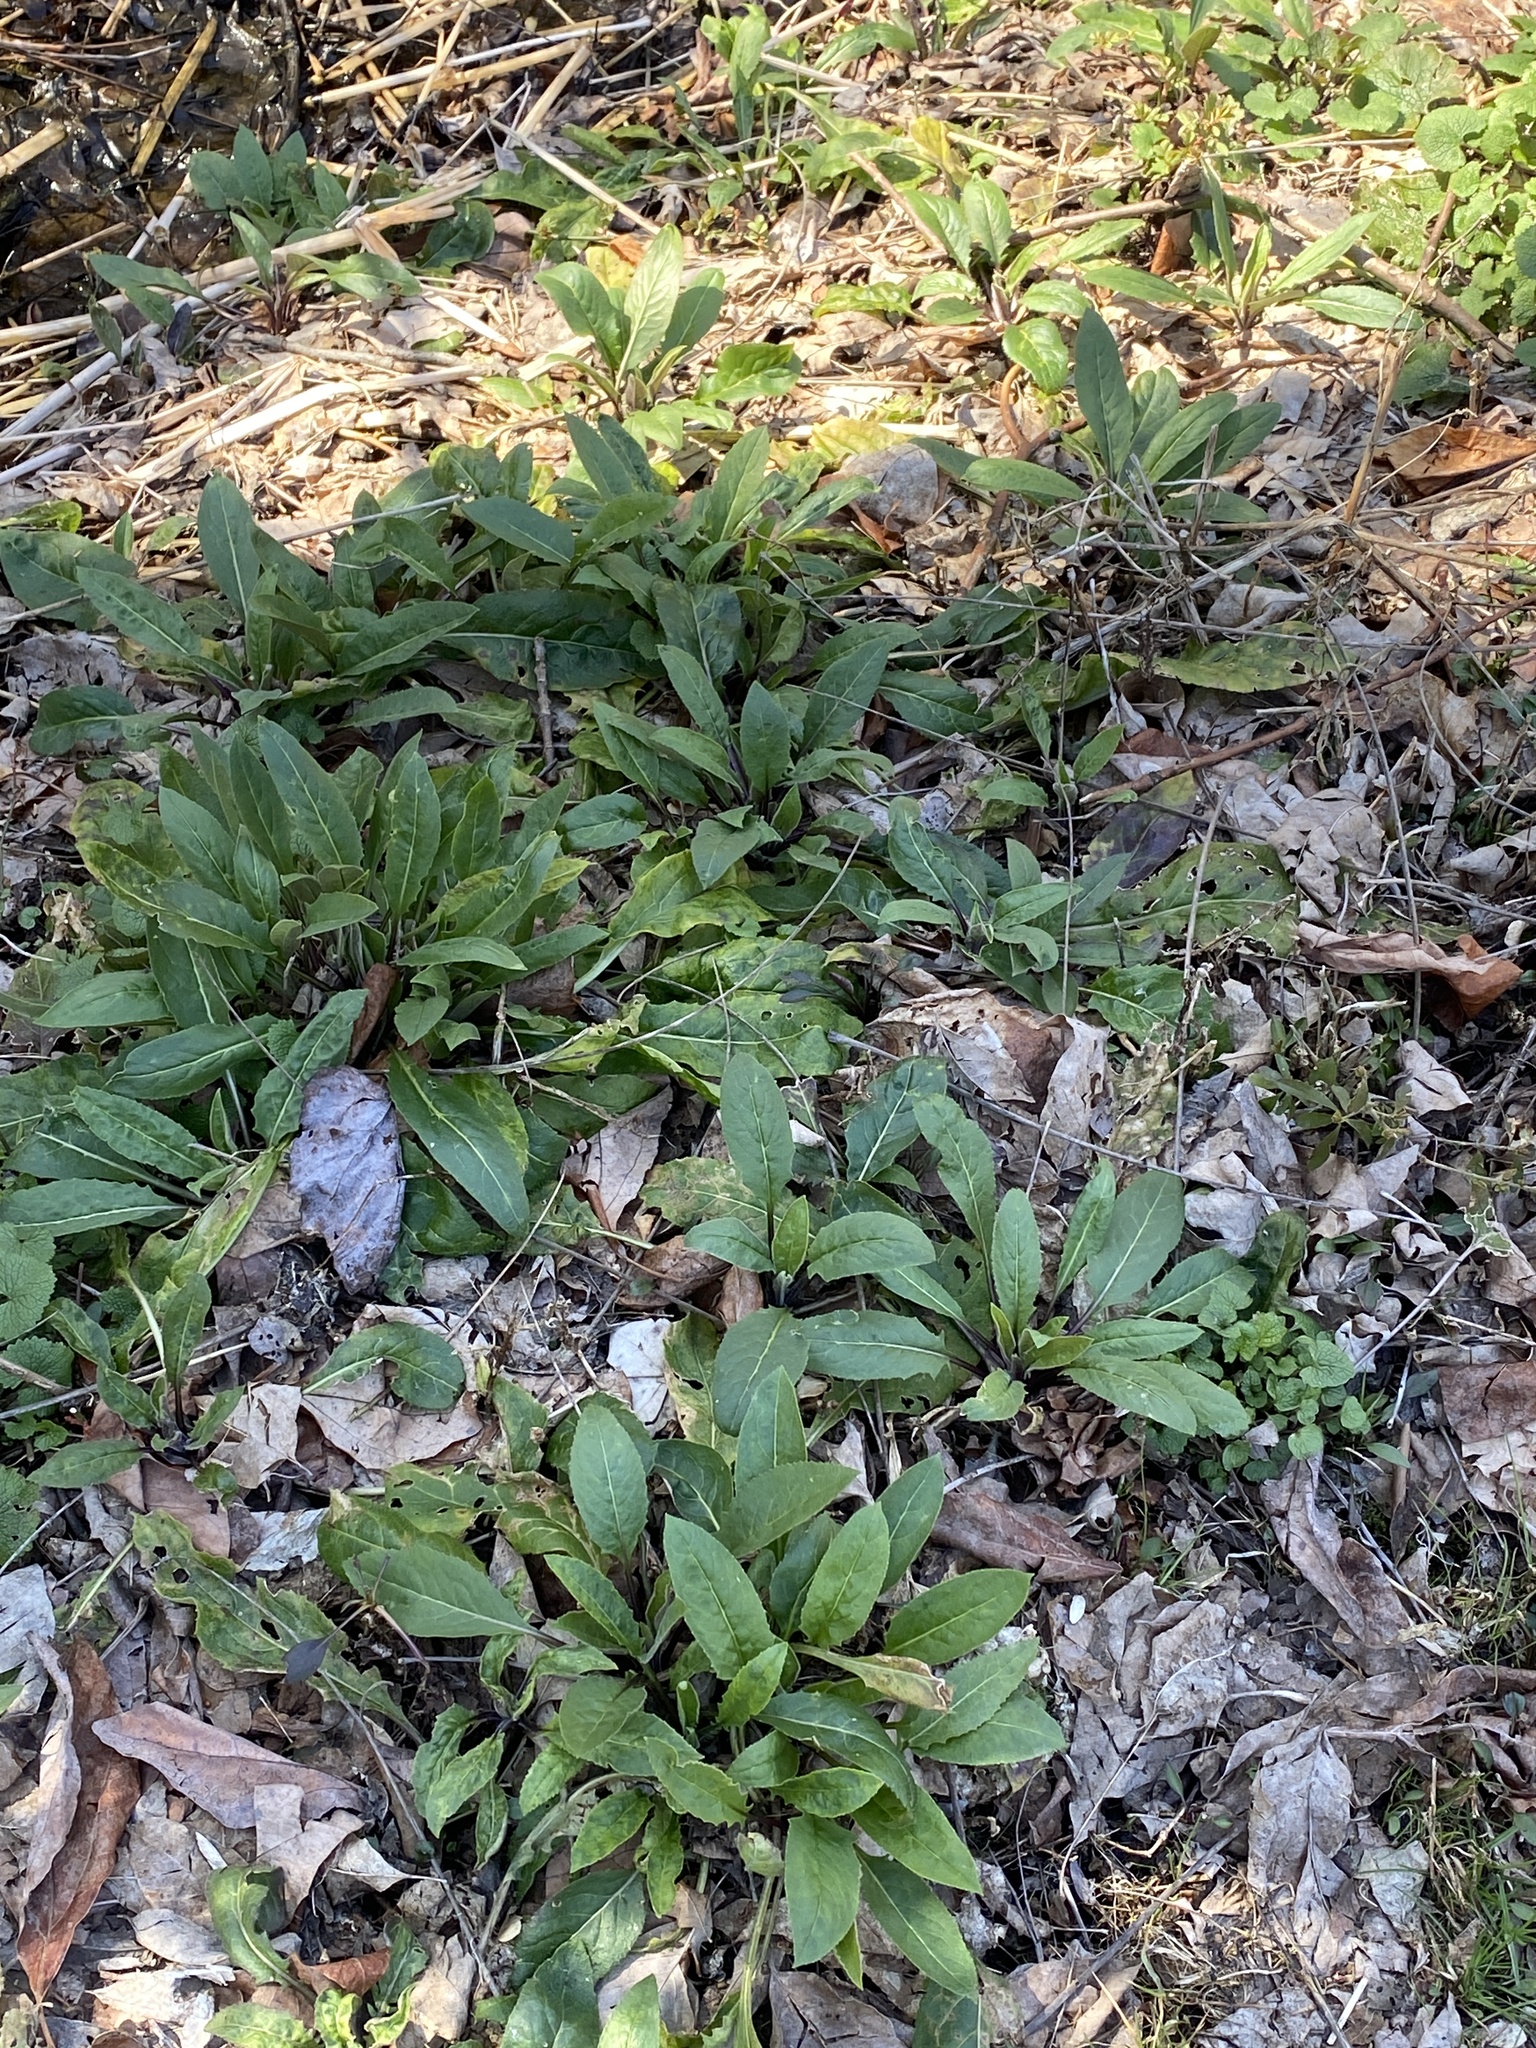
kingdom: Plantae
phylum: Tracheophyta
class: Magnoliopsida
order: Brassicales
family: Brassicaceae
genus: Hesperis
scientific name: Hesperis matronalis
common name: Dame's-violet
